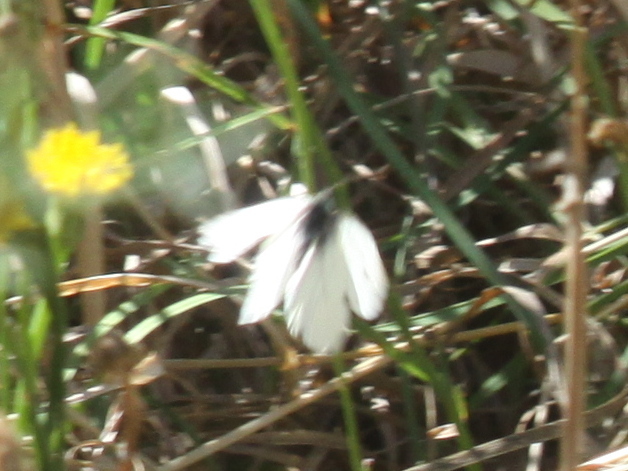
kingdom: Animalia
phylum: Arthropoda
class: Insecta
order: Lepidoptera
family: Pieridae
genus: Pieris
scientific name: Pieris rapae
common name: Small white
